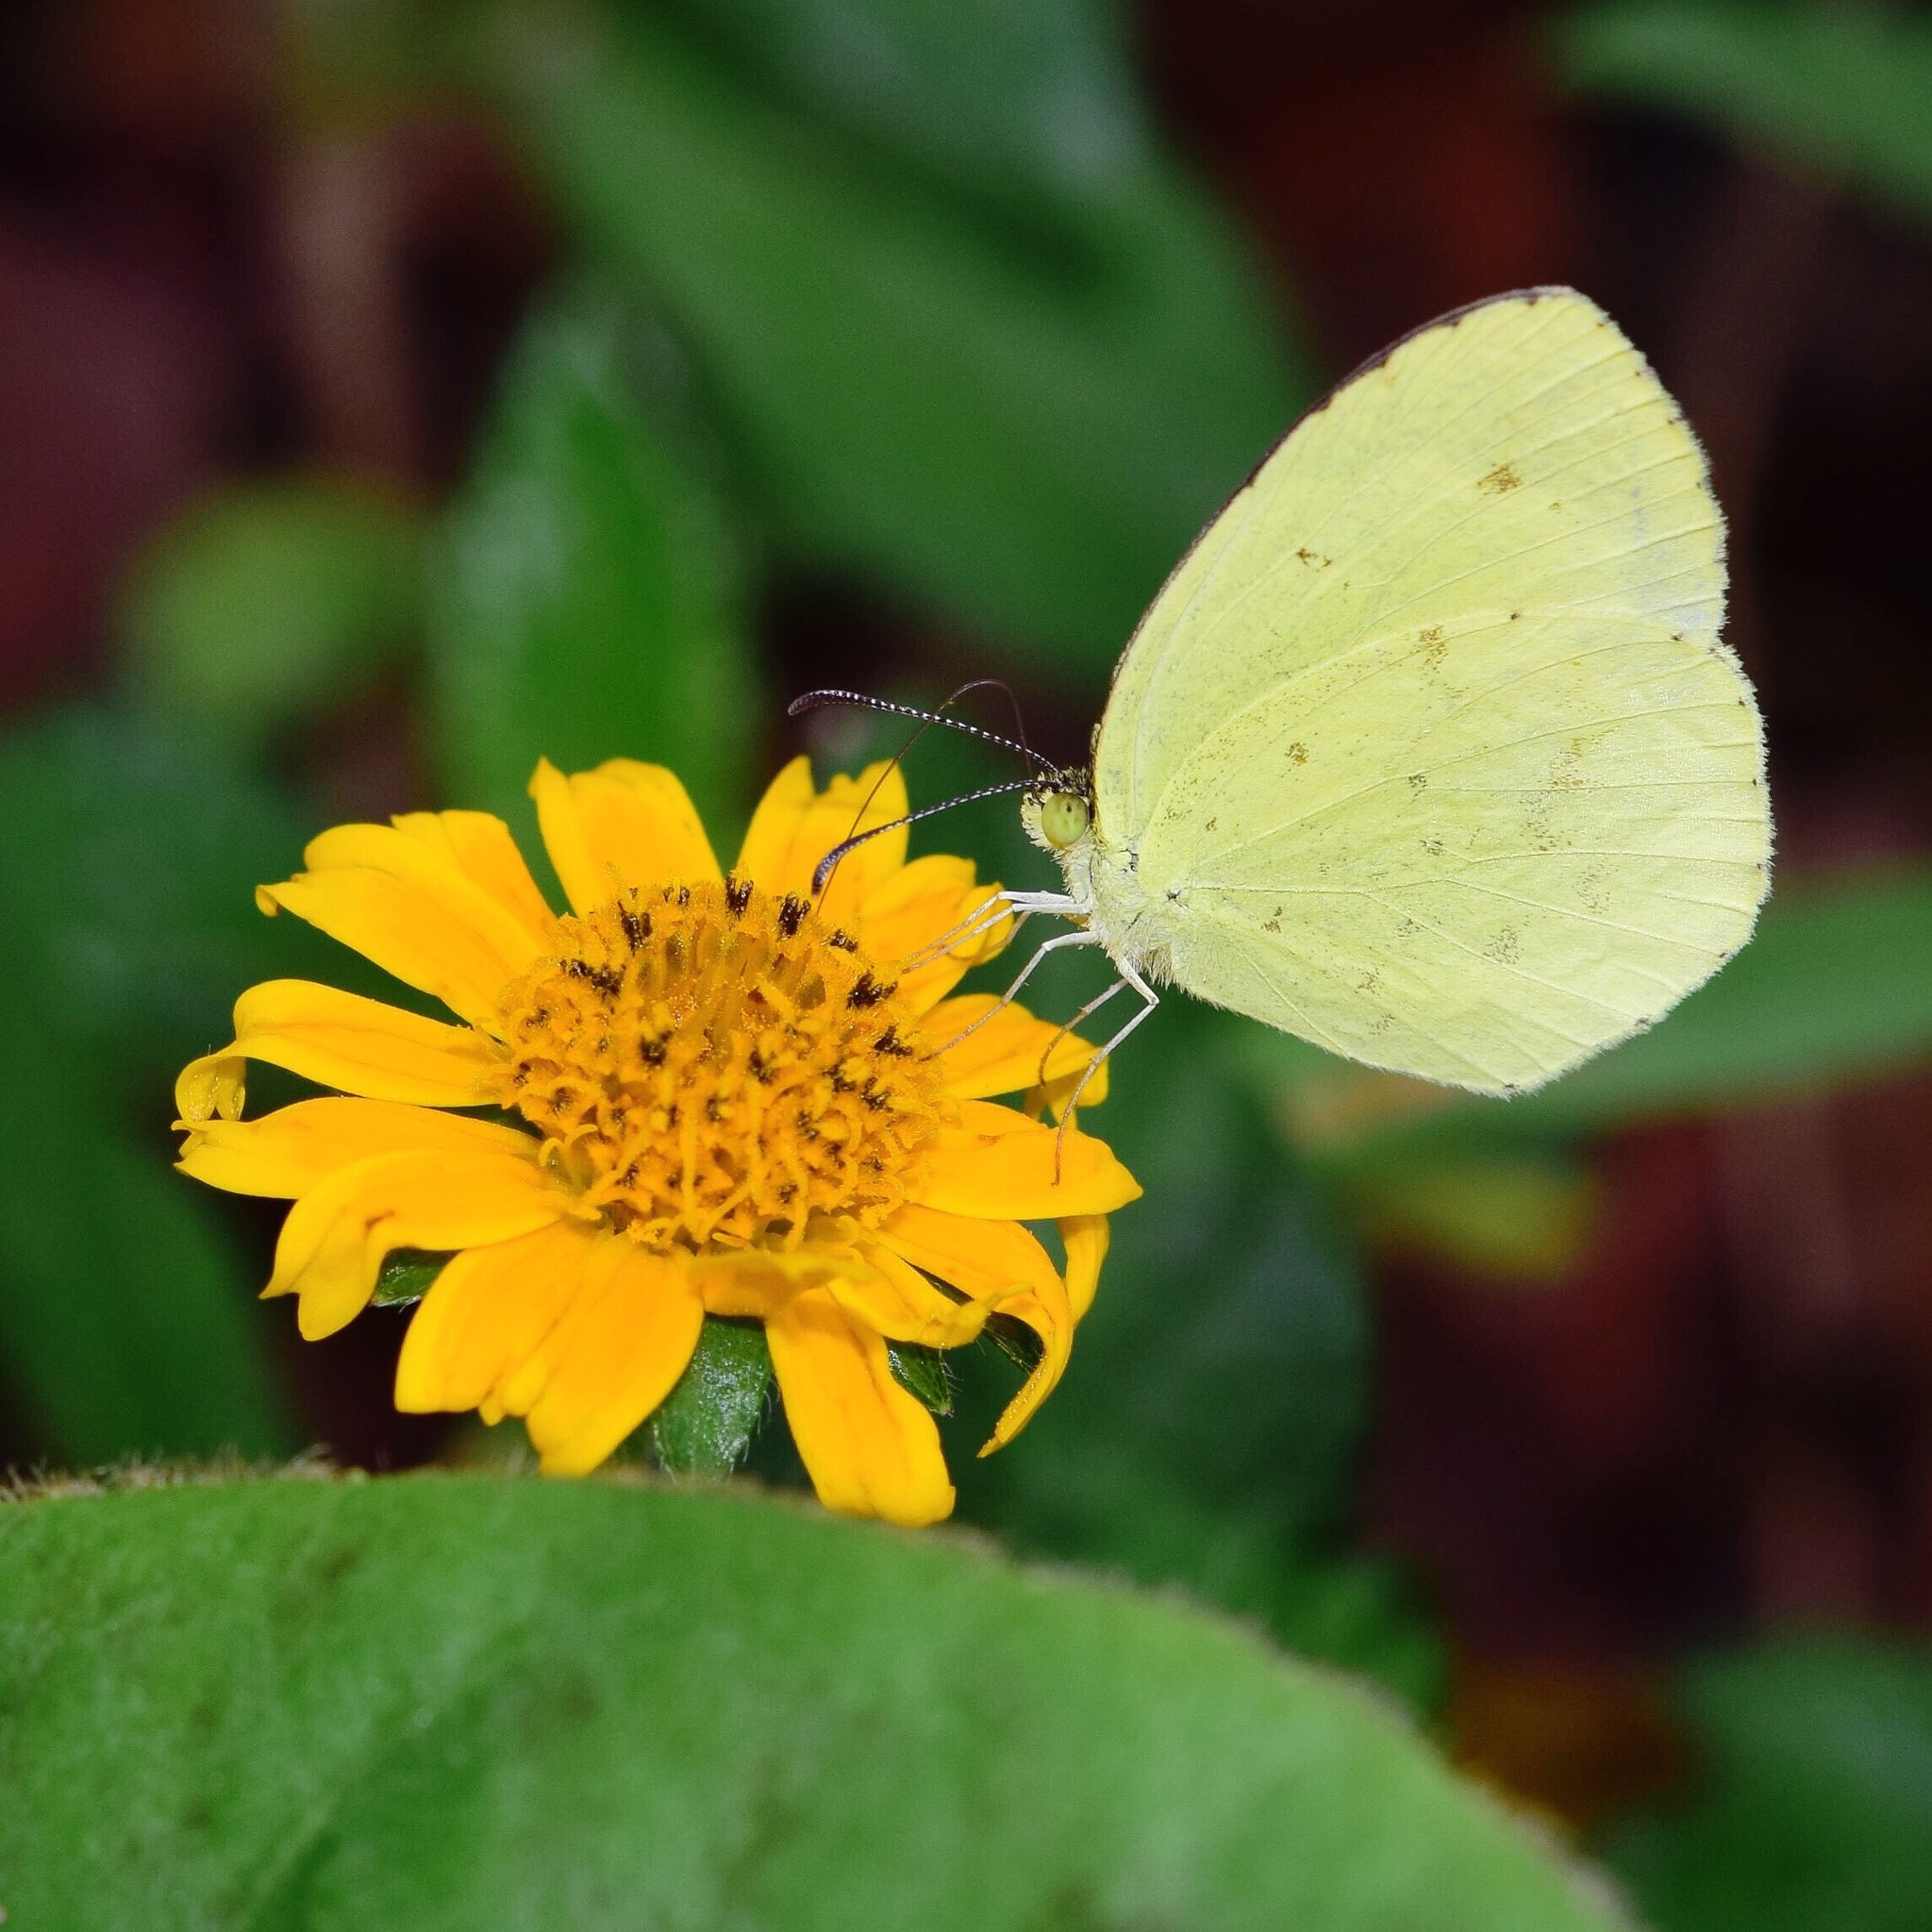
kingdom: Animalia
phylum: Arthropoda
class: Insecta
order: Lepidoptera
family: Pieridae
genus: Eurema
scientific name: Eurema regularis
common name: Regular grass yellow
